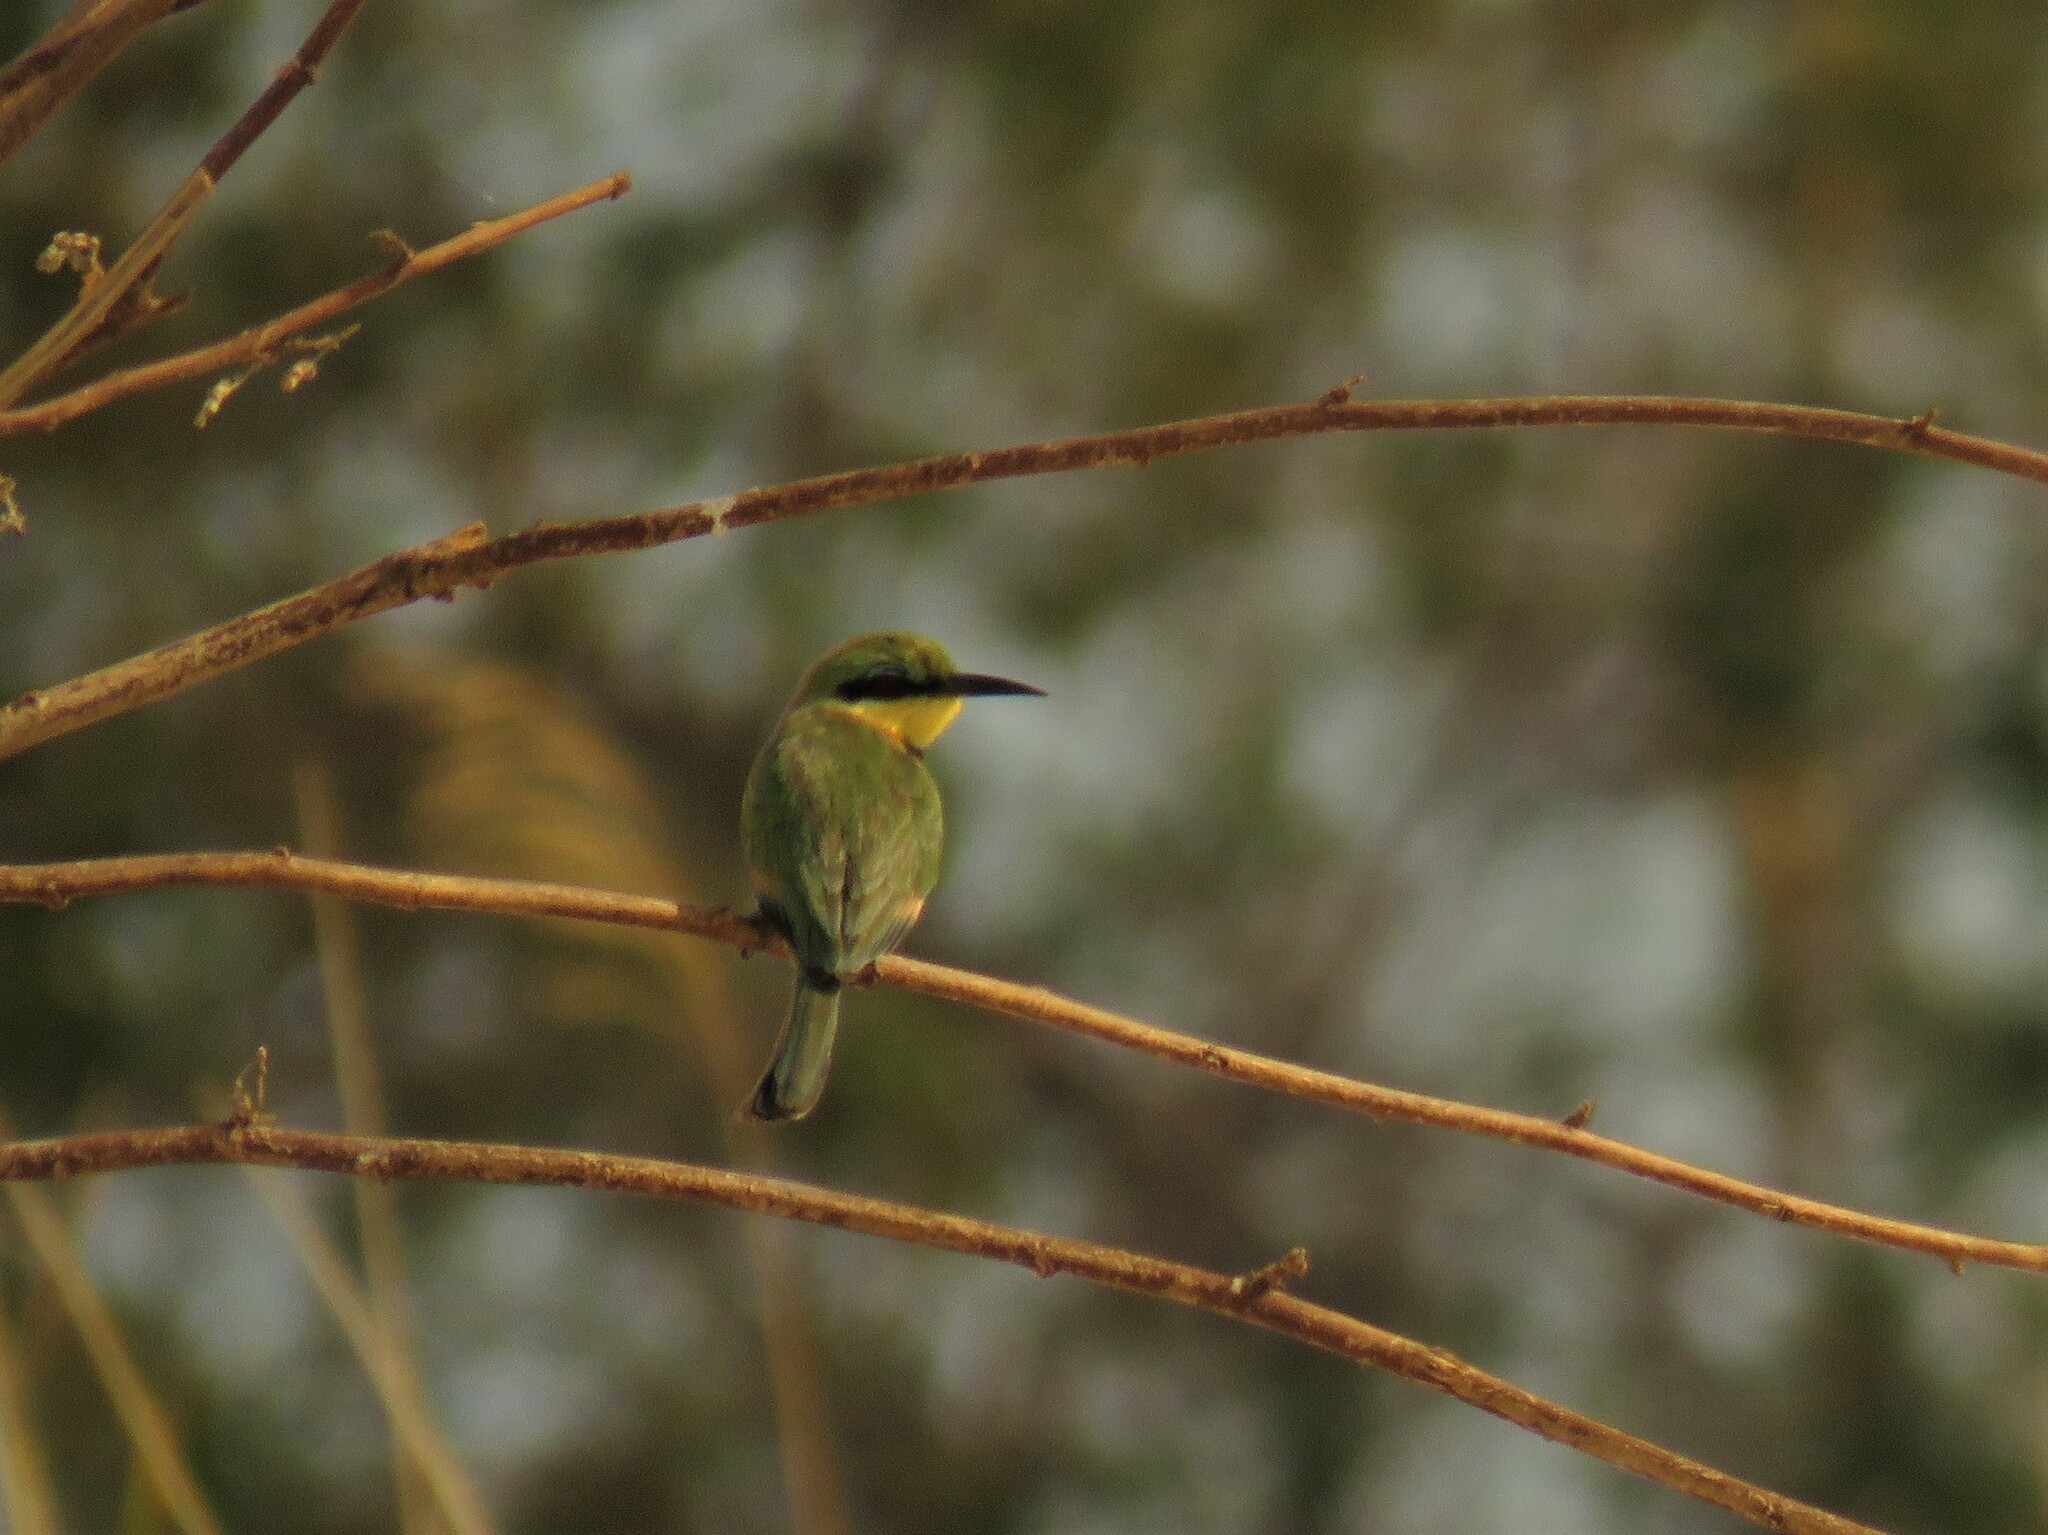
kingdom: Animalia
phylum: Chordata
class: Aves
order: Coraciiformes
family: Meropidae
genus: Merops
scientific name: Merops pusillus
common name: Little bee-eater
